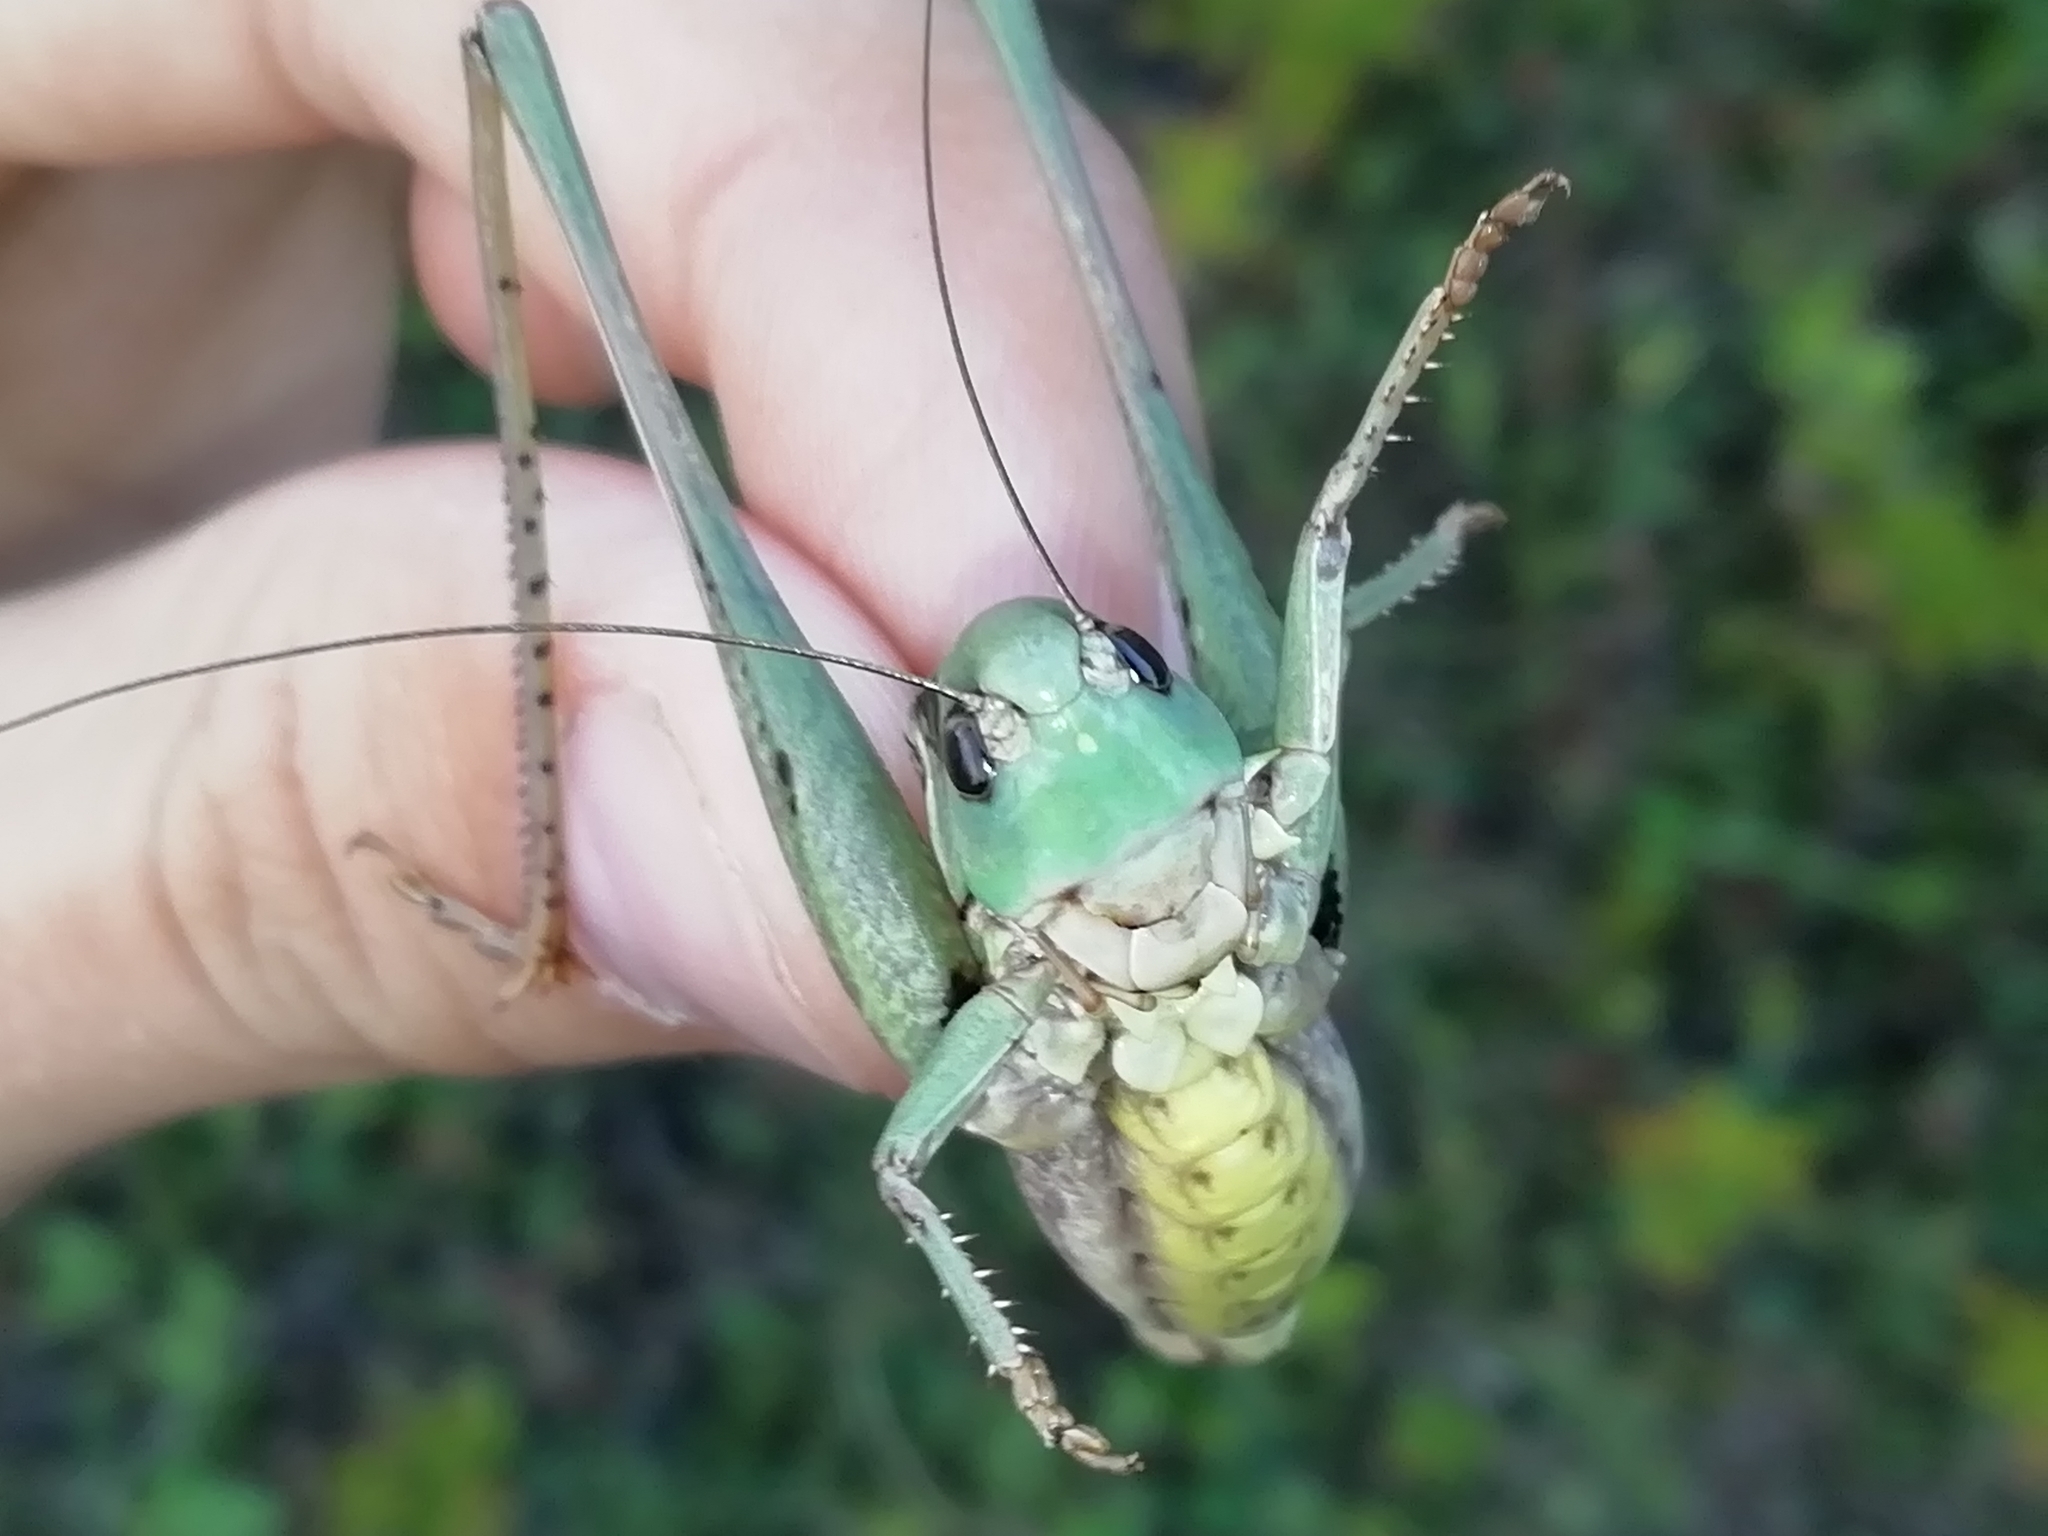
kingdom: Animalia
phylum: Arthropoda
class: Insecta
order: Orthoptera
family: Tettigoniidae
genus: Decticus
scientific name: Decticus verrucivorus
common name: Wart-biter
